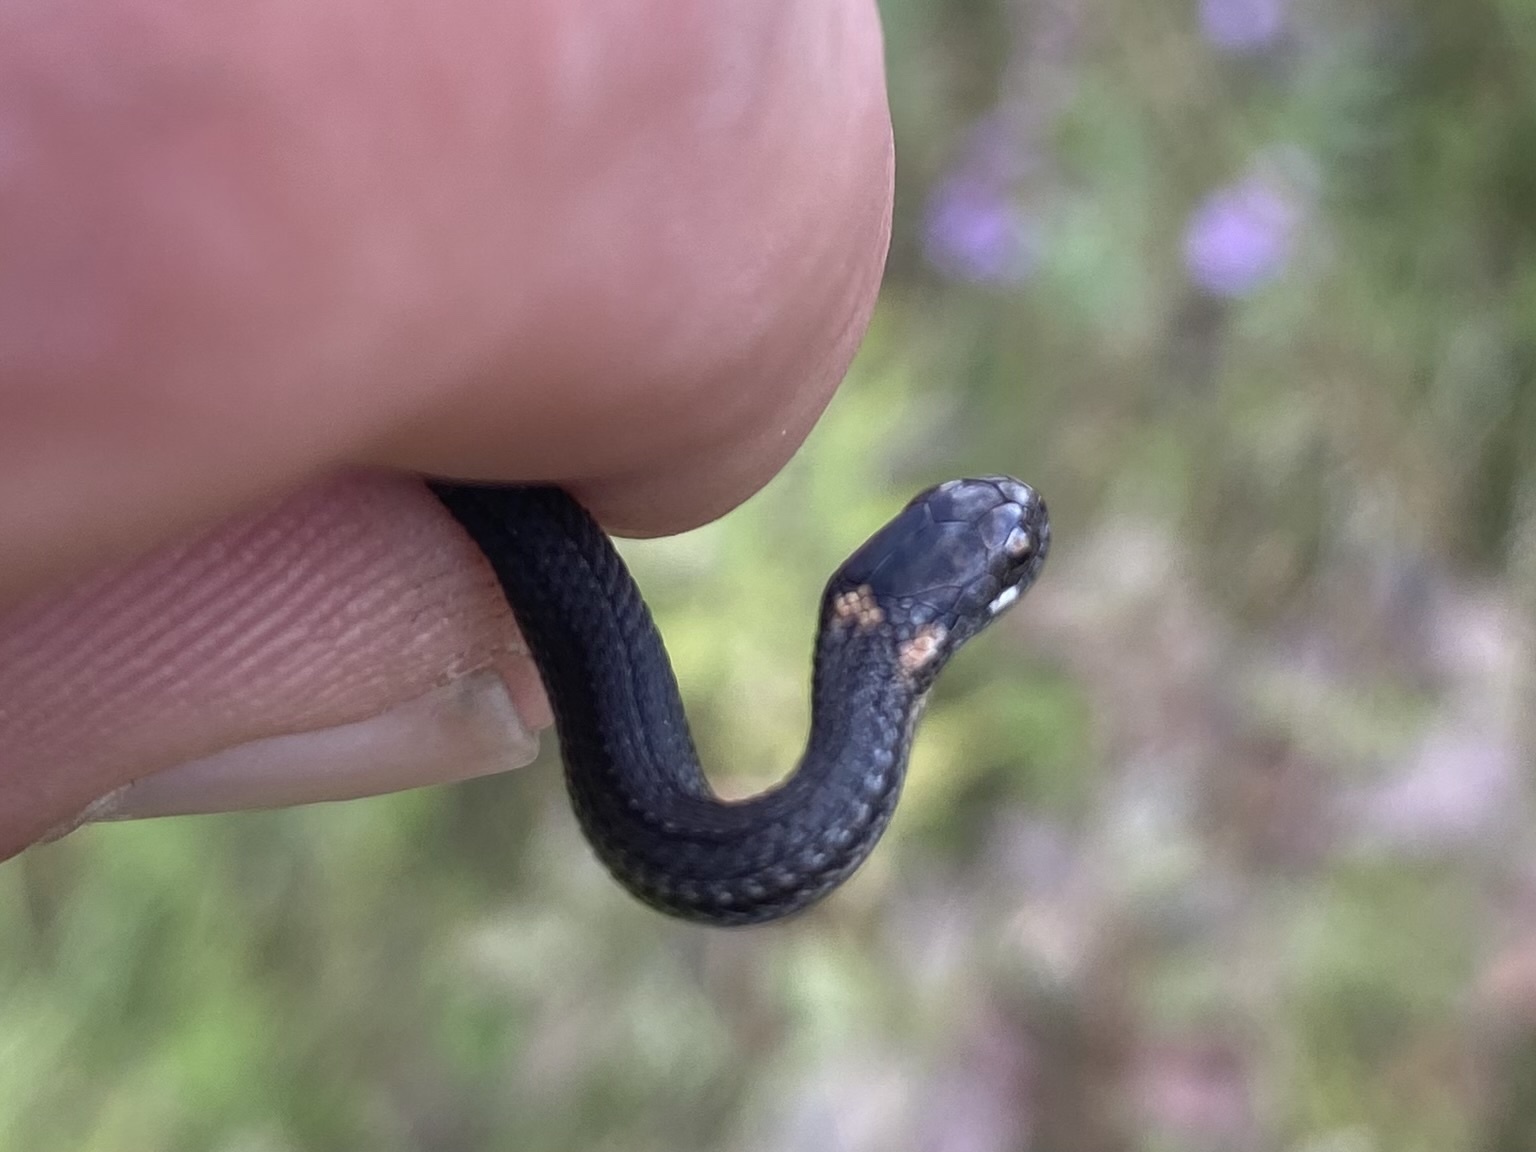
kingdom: Animalia
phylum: Chordata
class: Squamata
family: Colubridae
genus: Storeria
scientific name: Storeria occipitomaculata
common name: Redbelly snake
